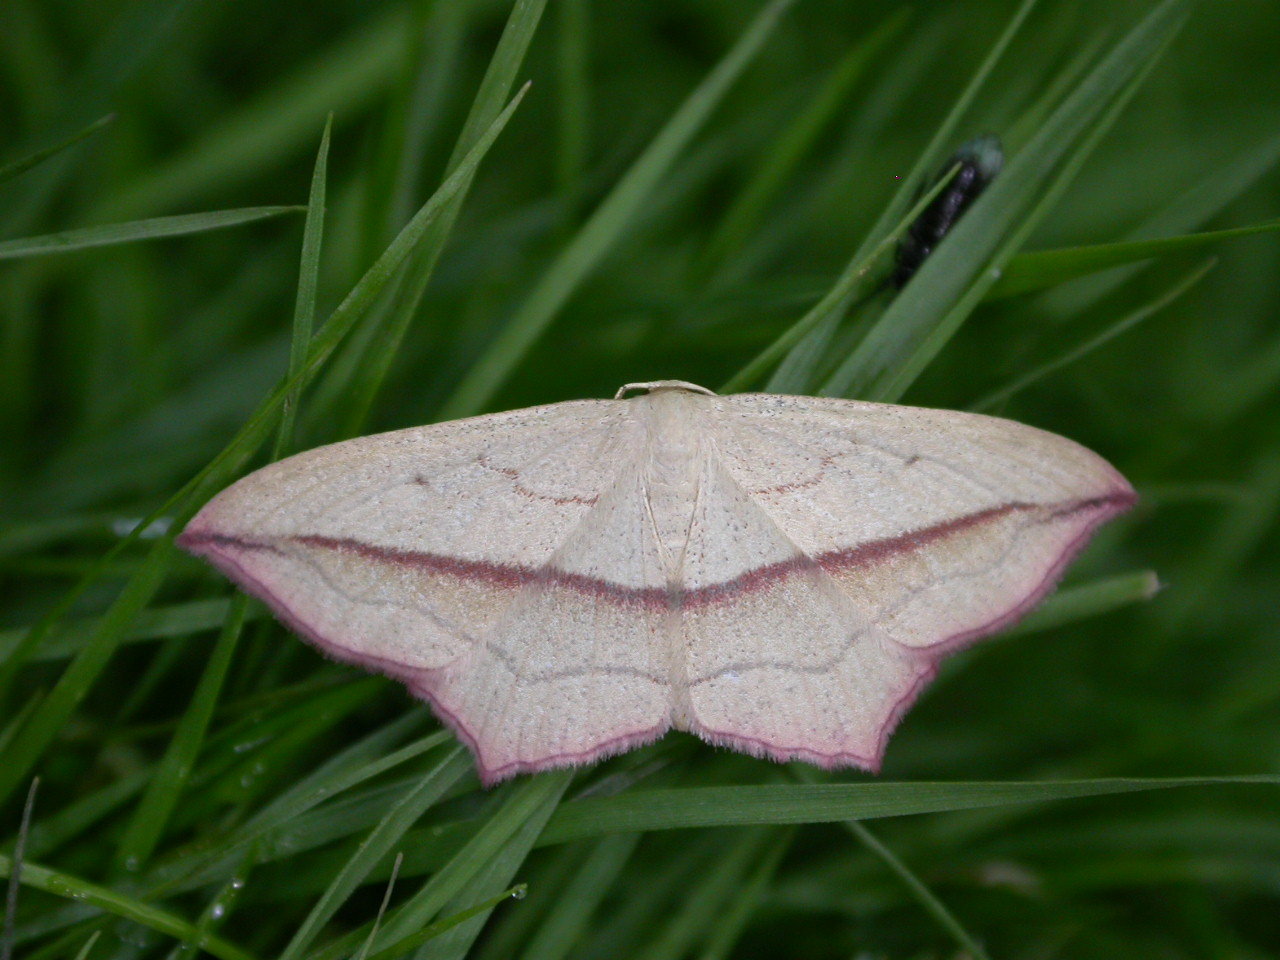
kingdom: Animalia
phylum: Arthropoda
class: Insecta
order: Lepidoptera
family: Geometridae
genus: Timandra
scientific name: Timandra comae
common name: Blood-vein
